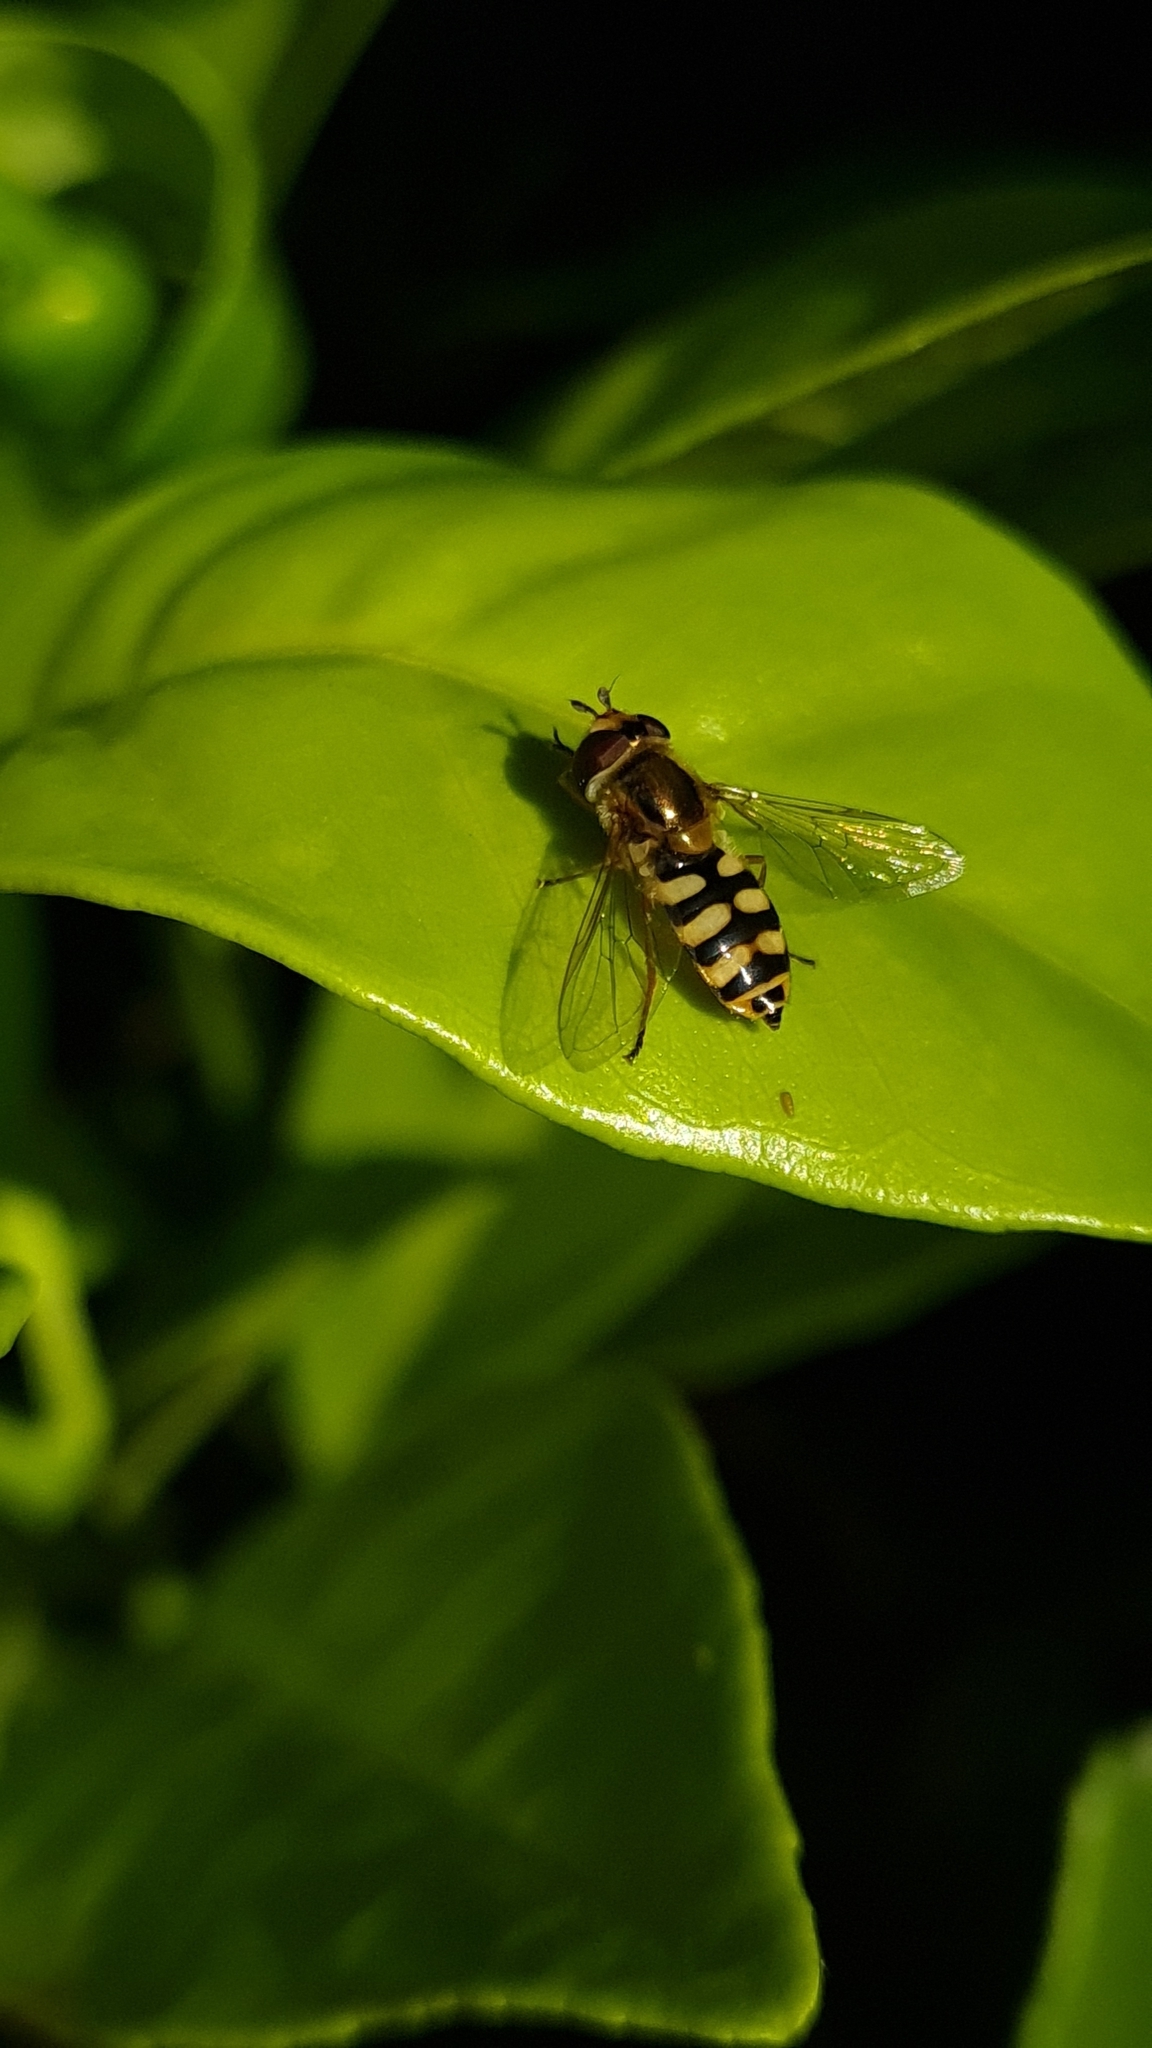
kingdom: Animalia
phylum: Arthropoda
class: Insecta
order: Diptera
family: Syrphidae
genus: Eupeodes
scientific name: Eupeodes corollae
